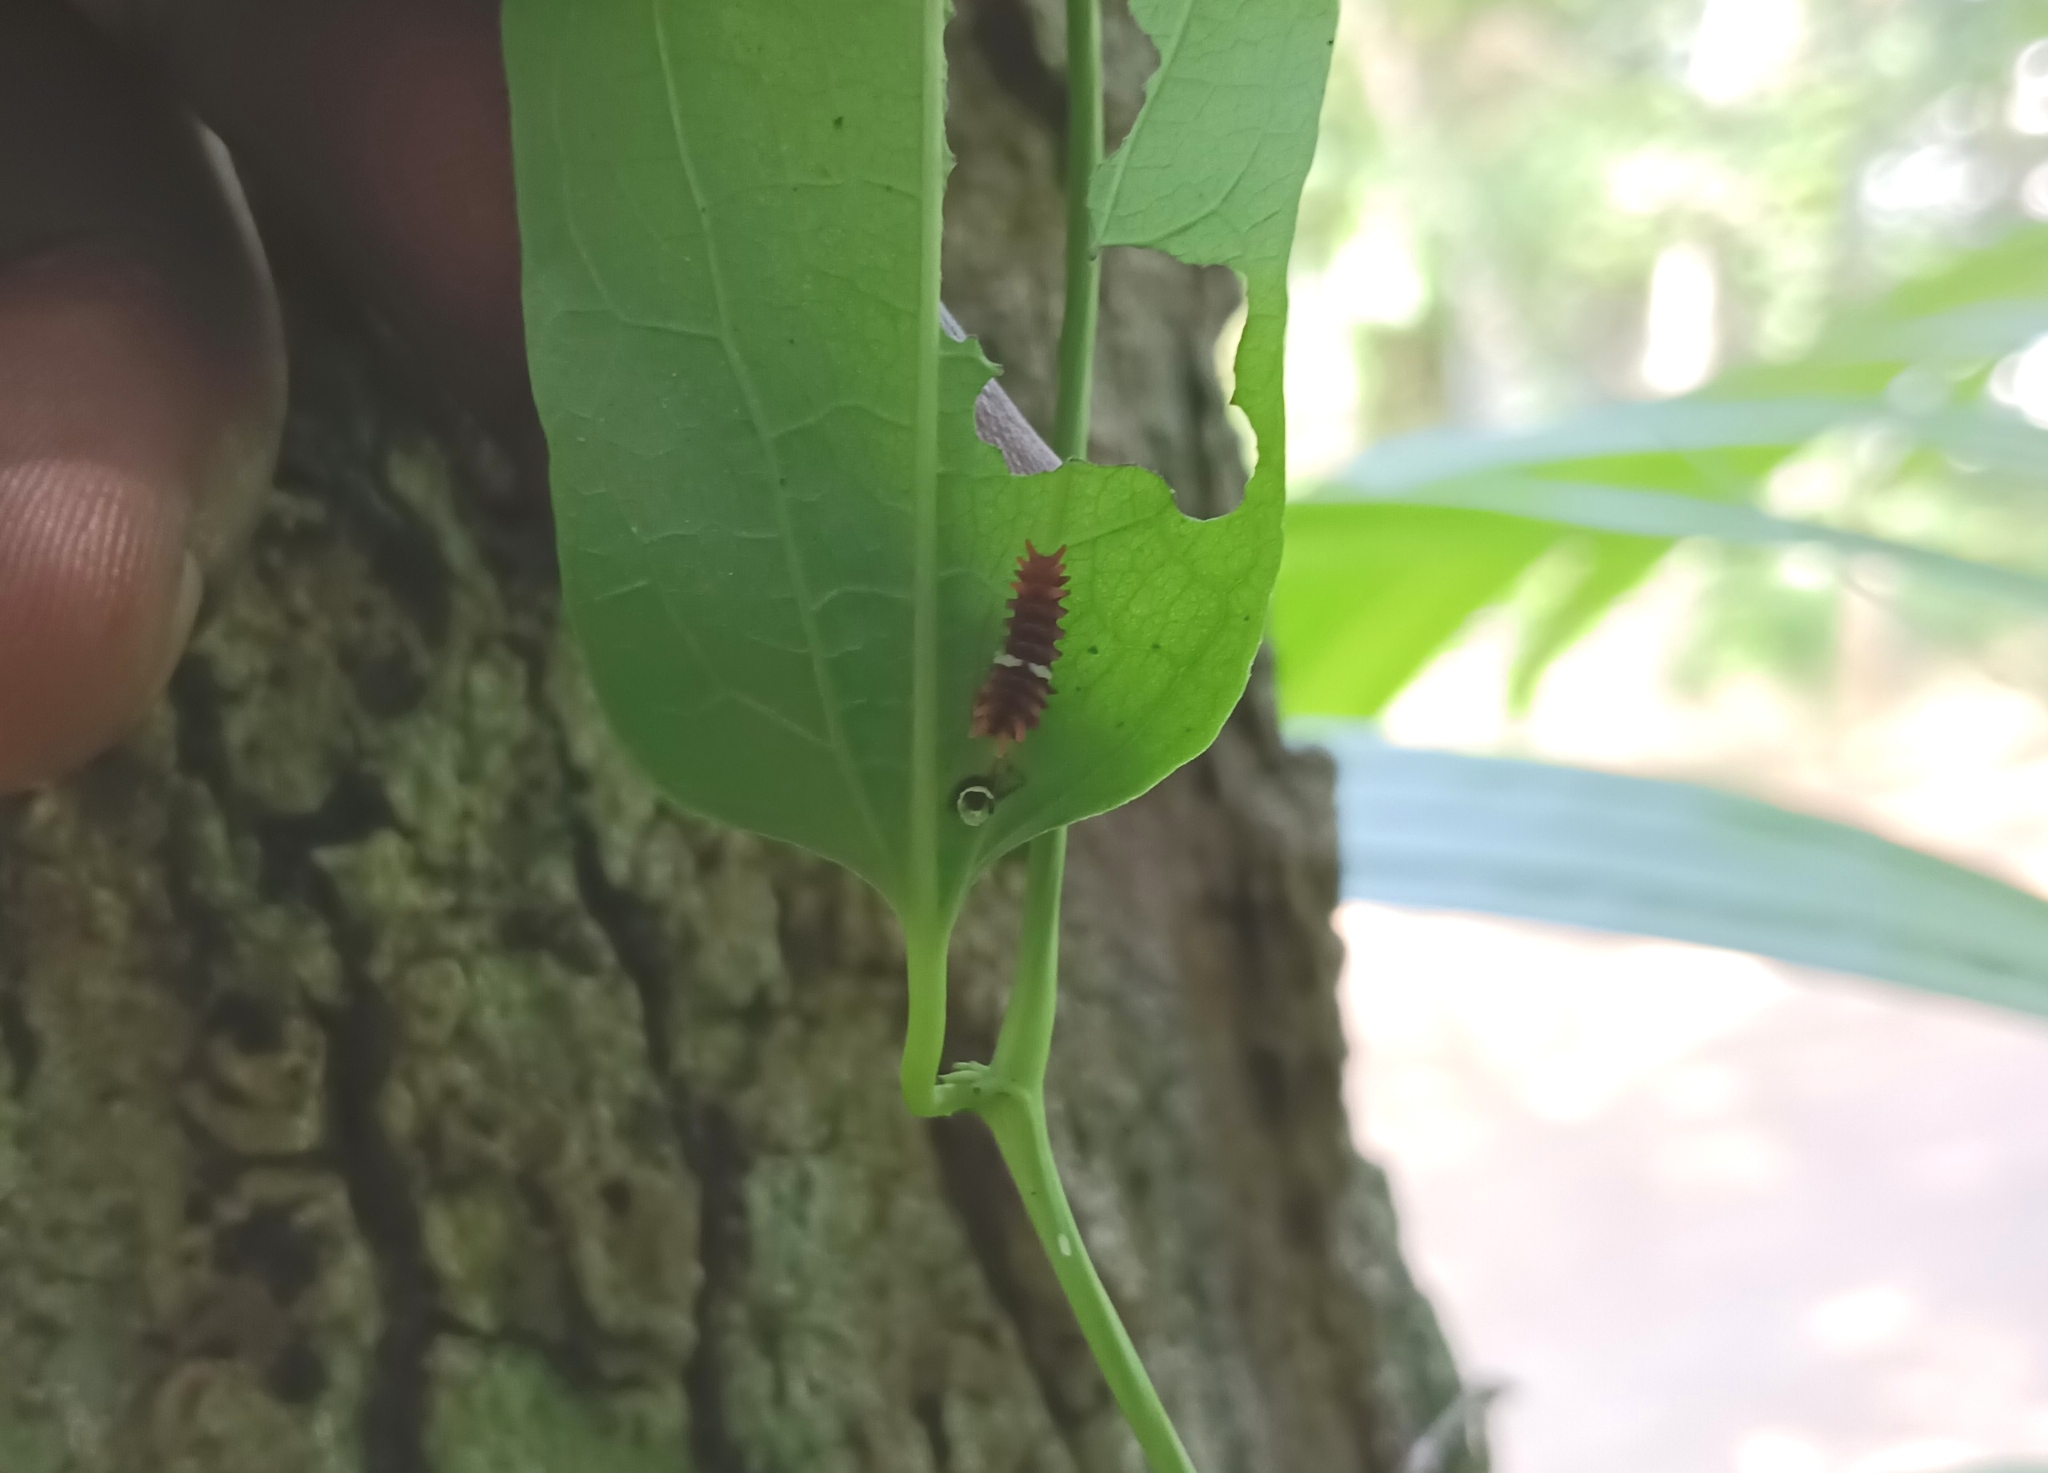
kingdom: Animalia
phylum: Arthropoda
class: Insecta
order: Lepidoptera
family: Papilionidae
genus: Pachliopta
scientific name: Pachliopta aristolochiae
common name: Common rose
